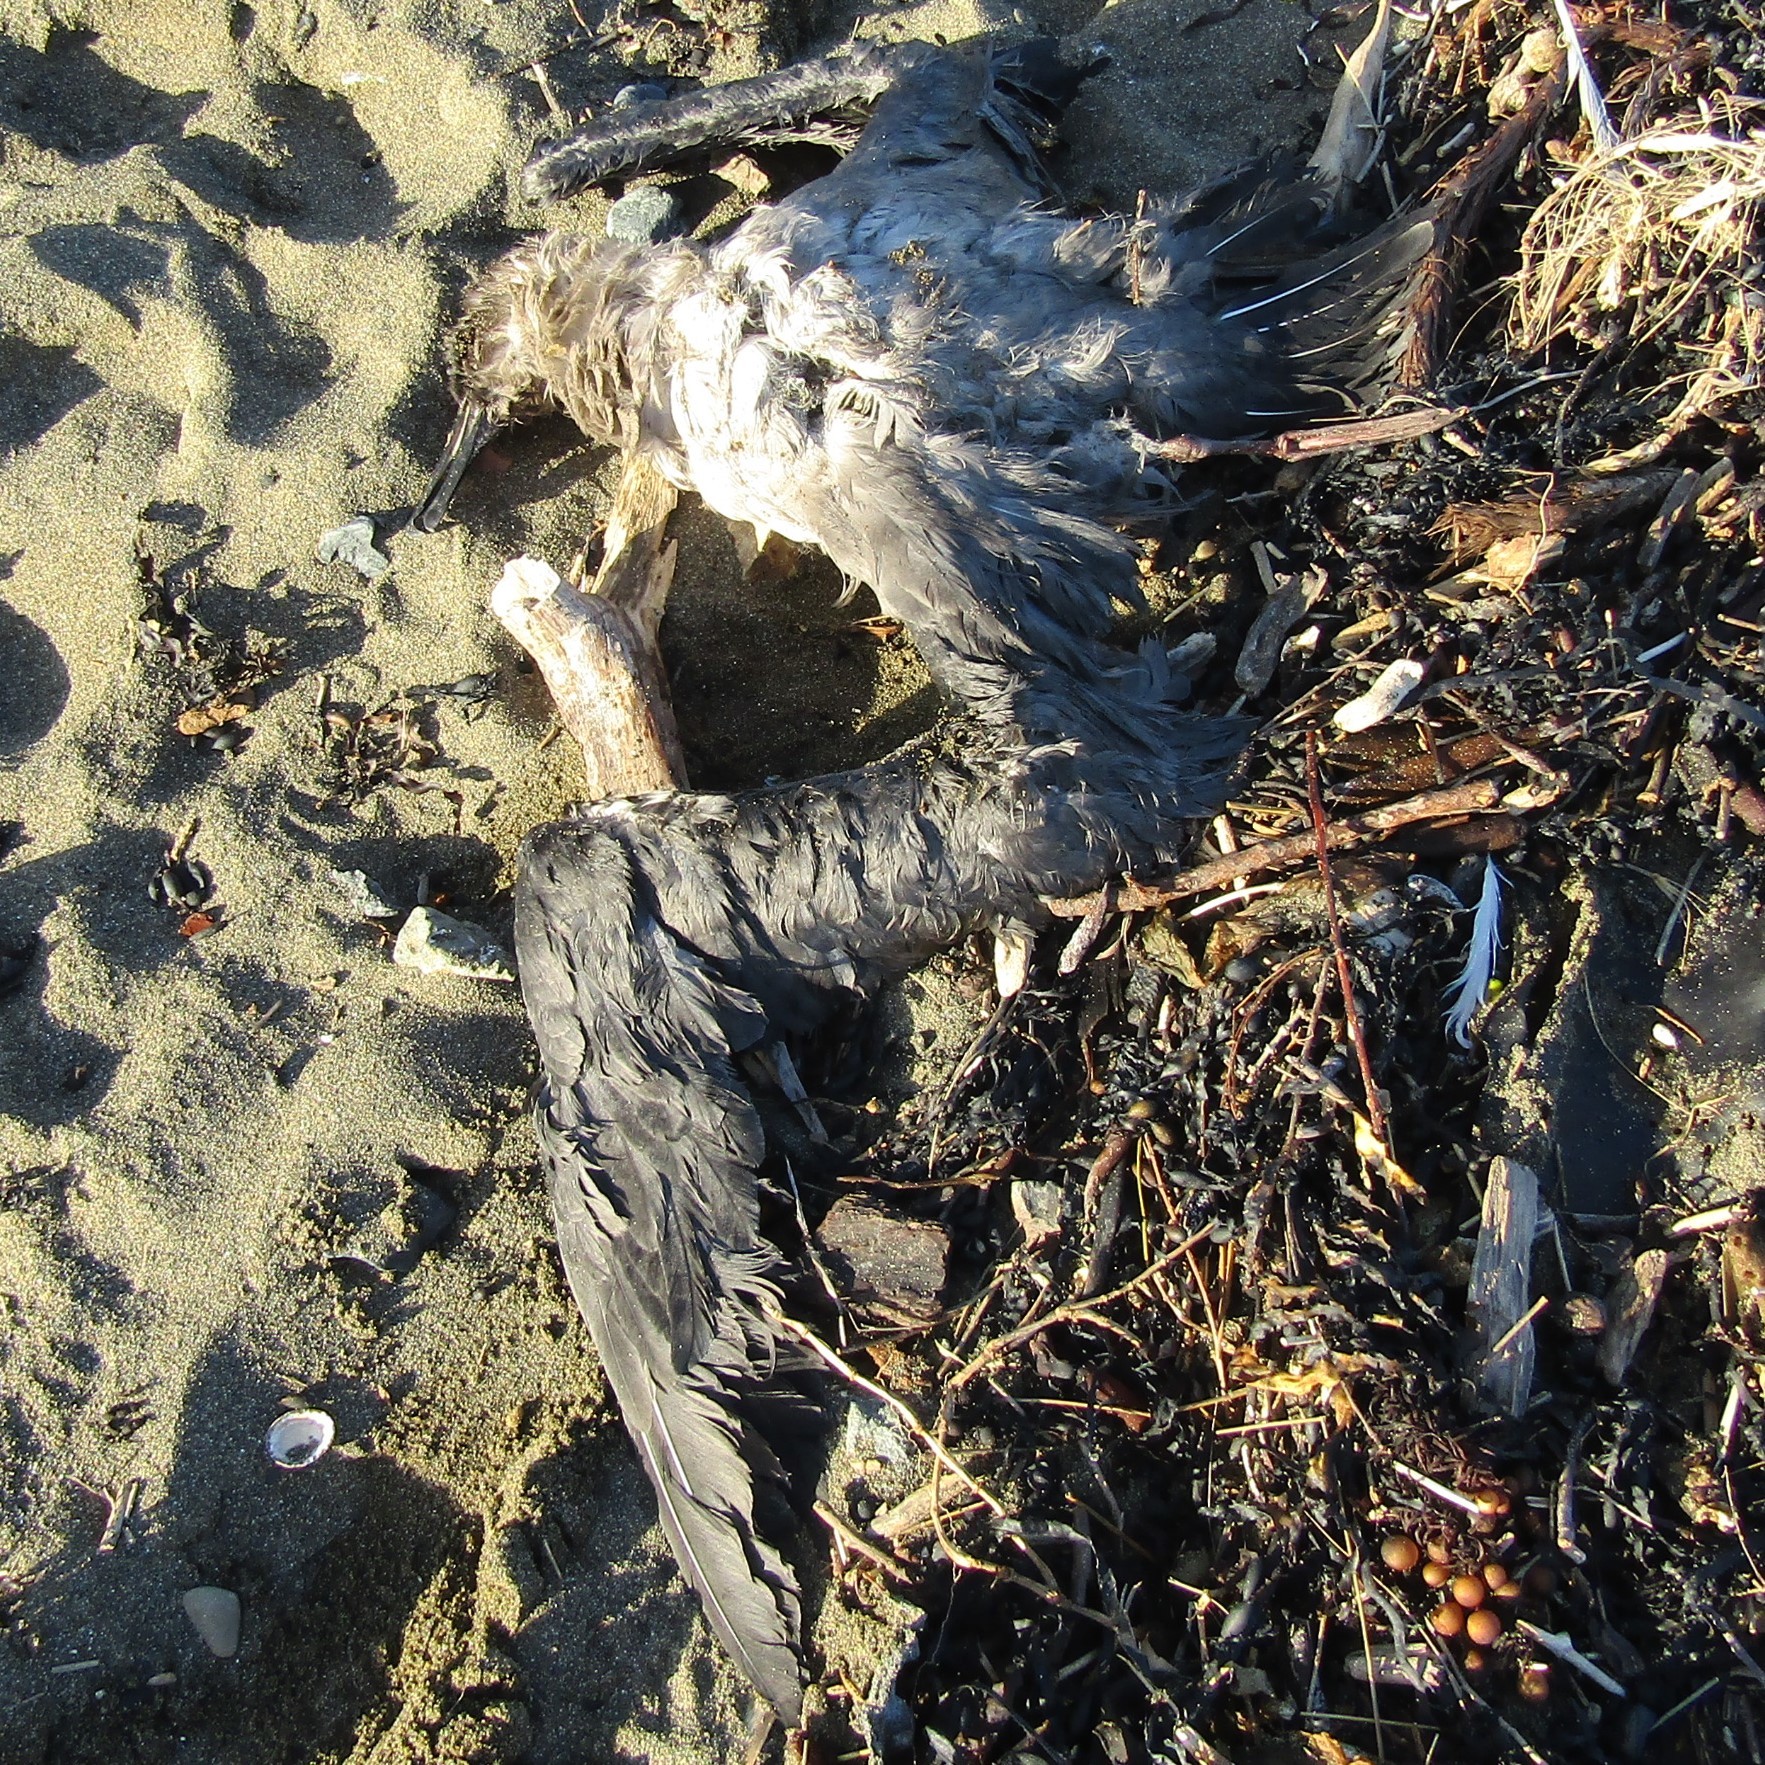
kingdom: Animalia
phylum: Chordata
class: Aves
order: Procellariiformes
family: Diomedeidae
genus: Phoebetria
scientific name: Phoebetria palpebrata
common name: Light-mantled albatross
